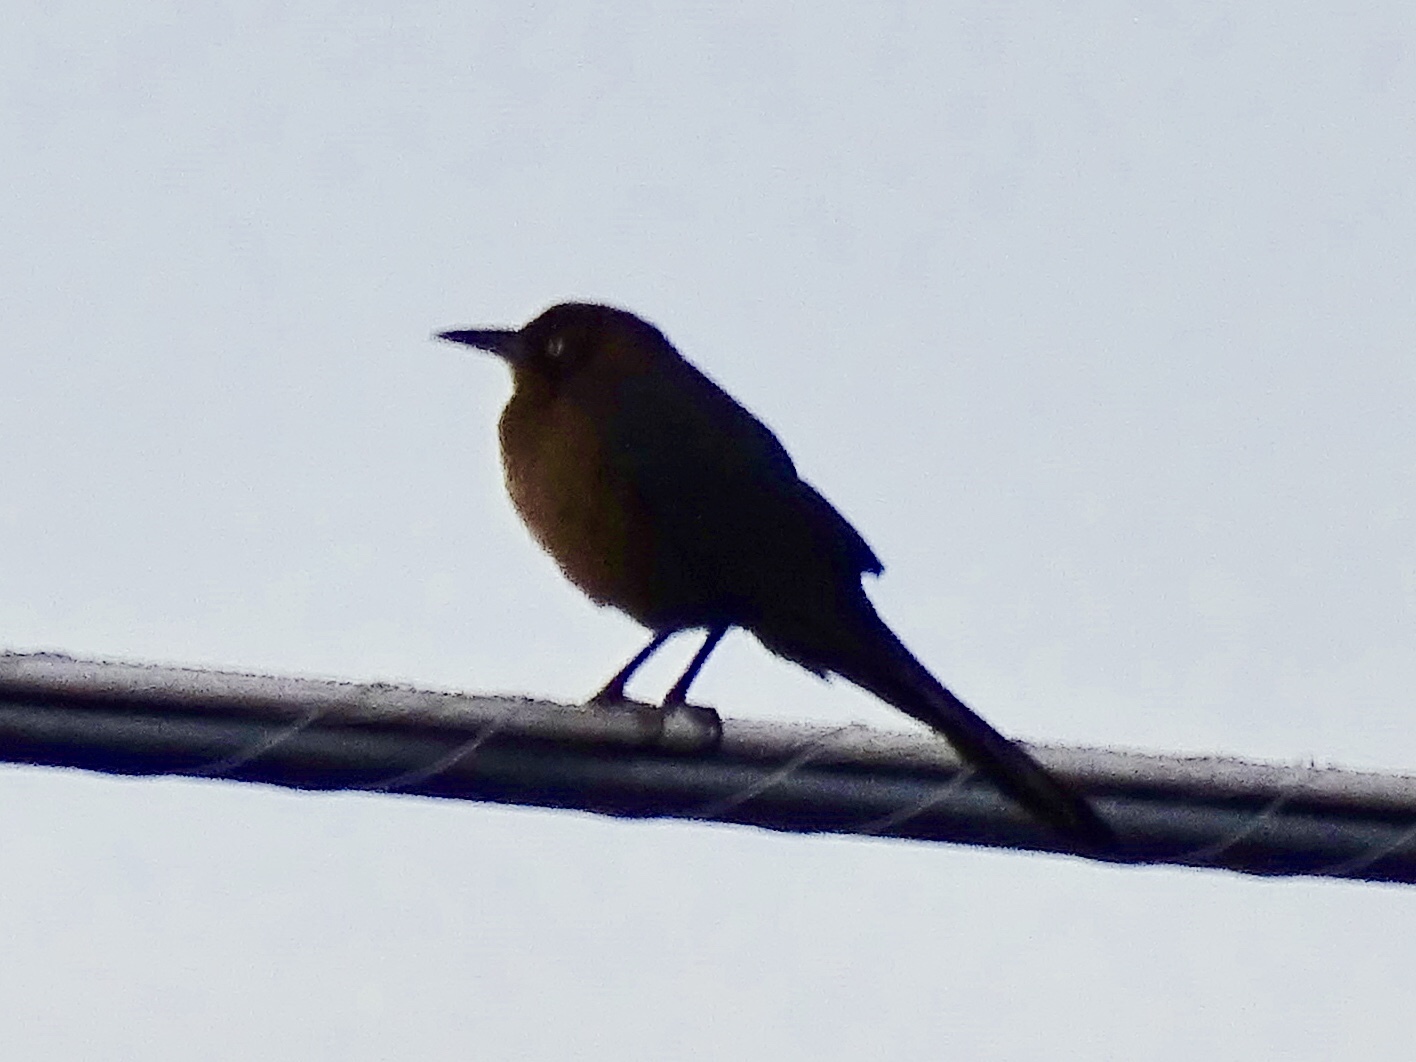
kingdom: Animalia
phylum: Chordata
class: Aves
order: Passeriformes
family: Icteridae
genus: Quiscalus
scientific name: Quiscalus mexicanus
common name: Great-tailed grackle
